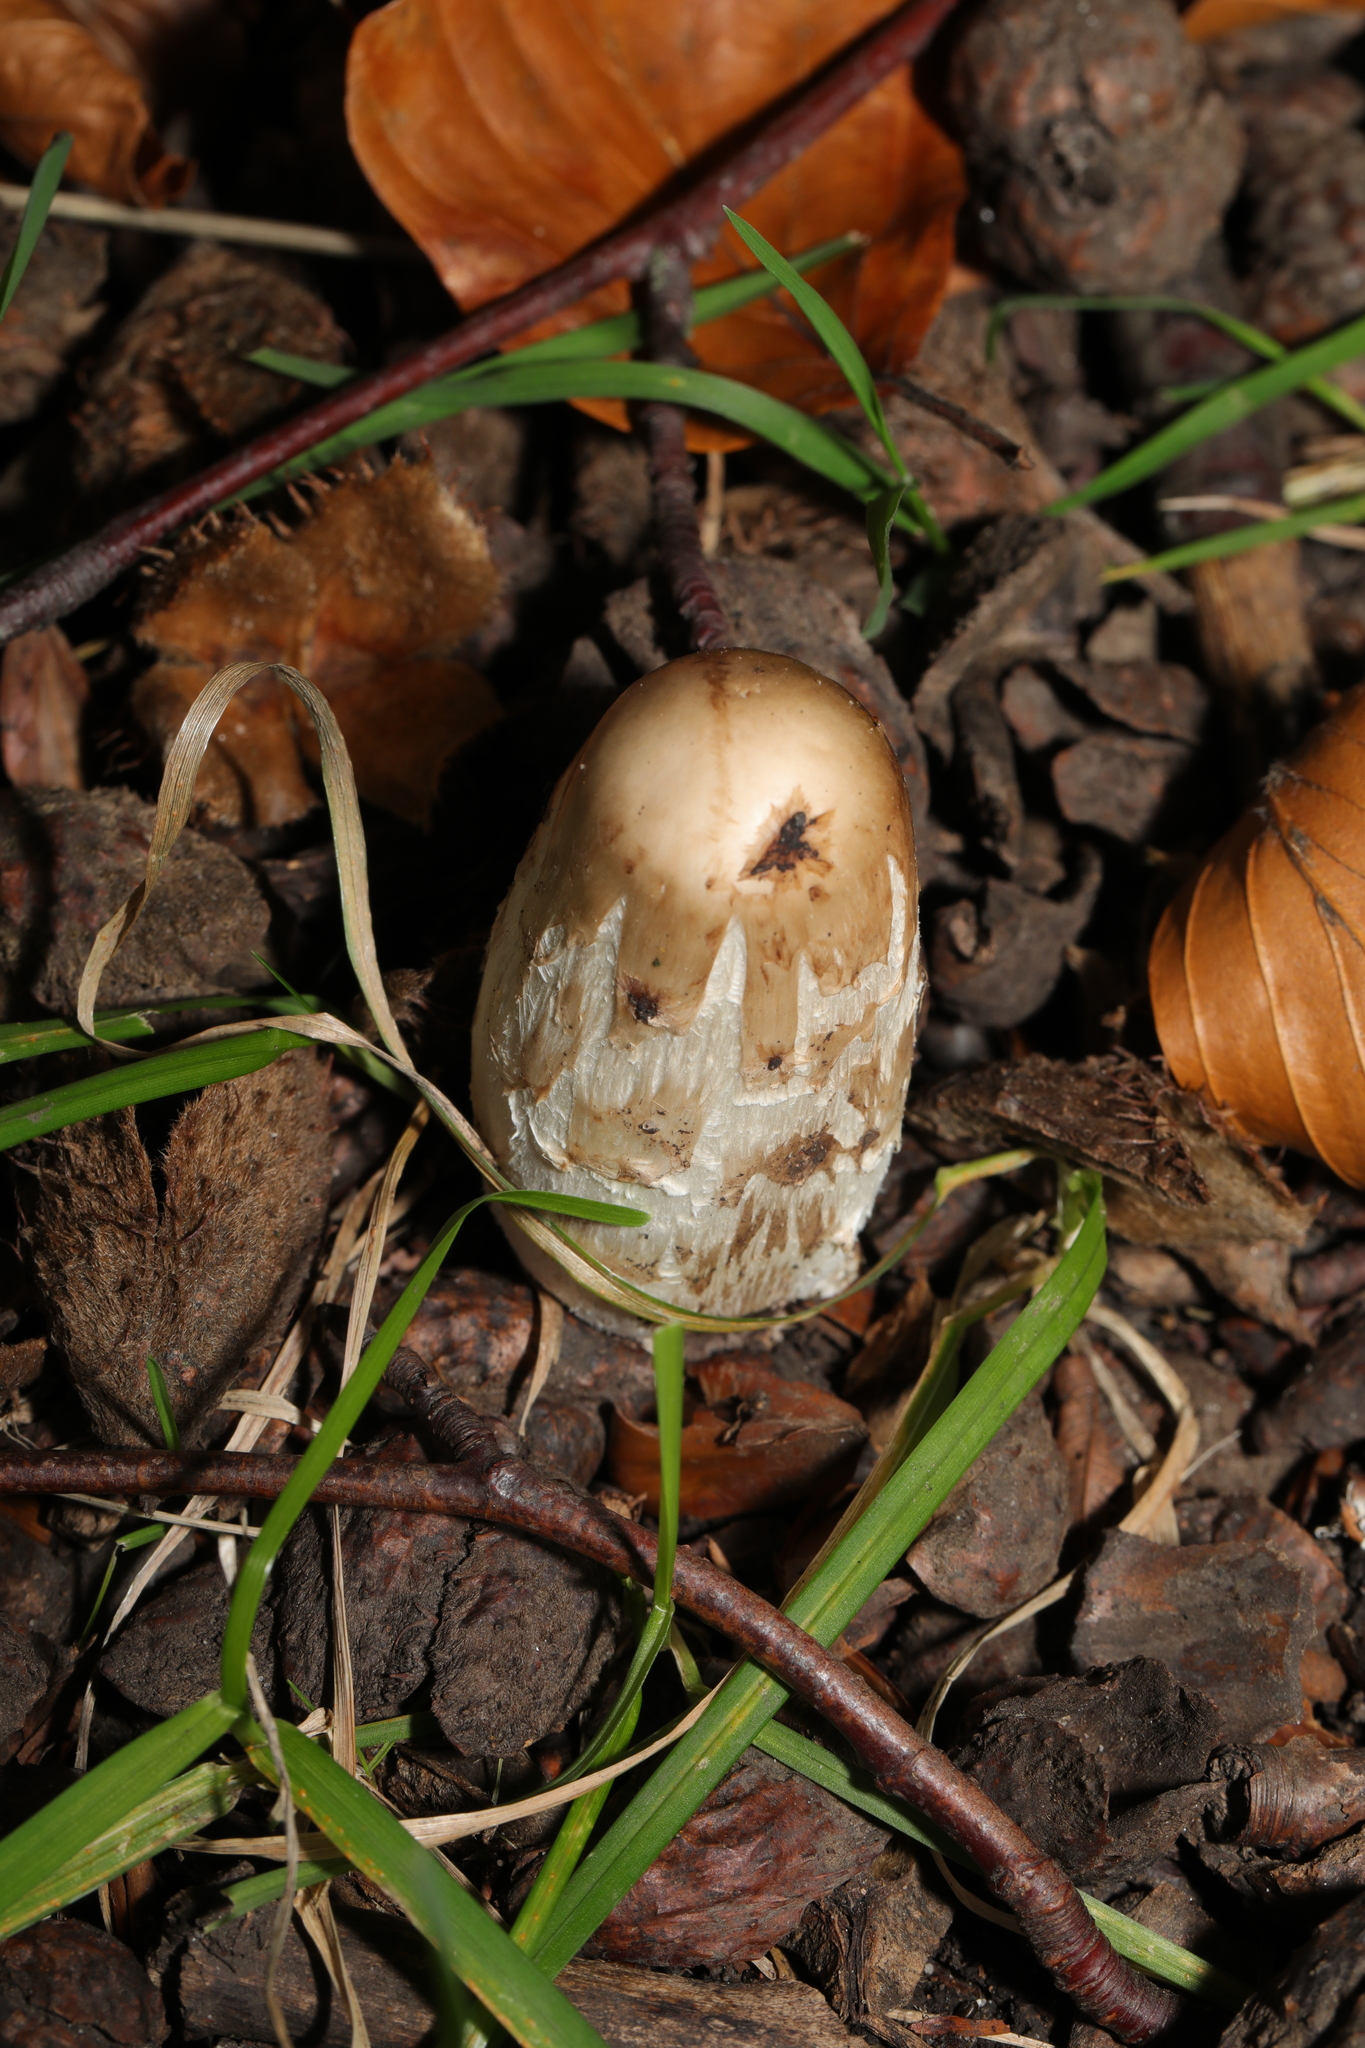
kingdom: Fungi
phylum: Basidiomycota
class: Agaricomycetes
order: Agaricales
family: Agaricaceae
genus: Coprinus
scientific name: Coprinus comatus
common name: Lawyer's wig
